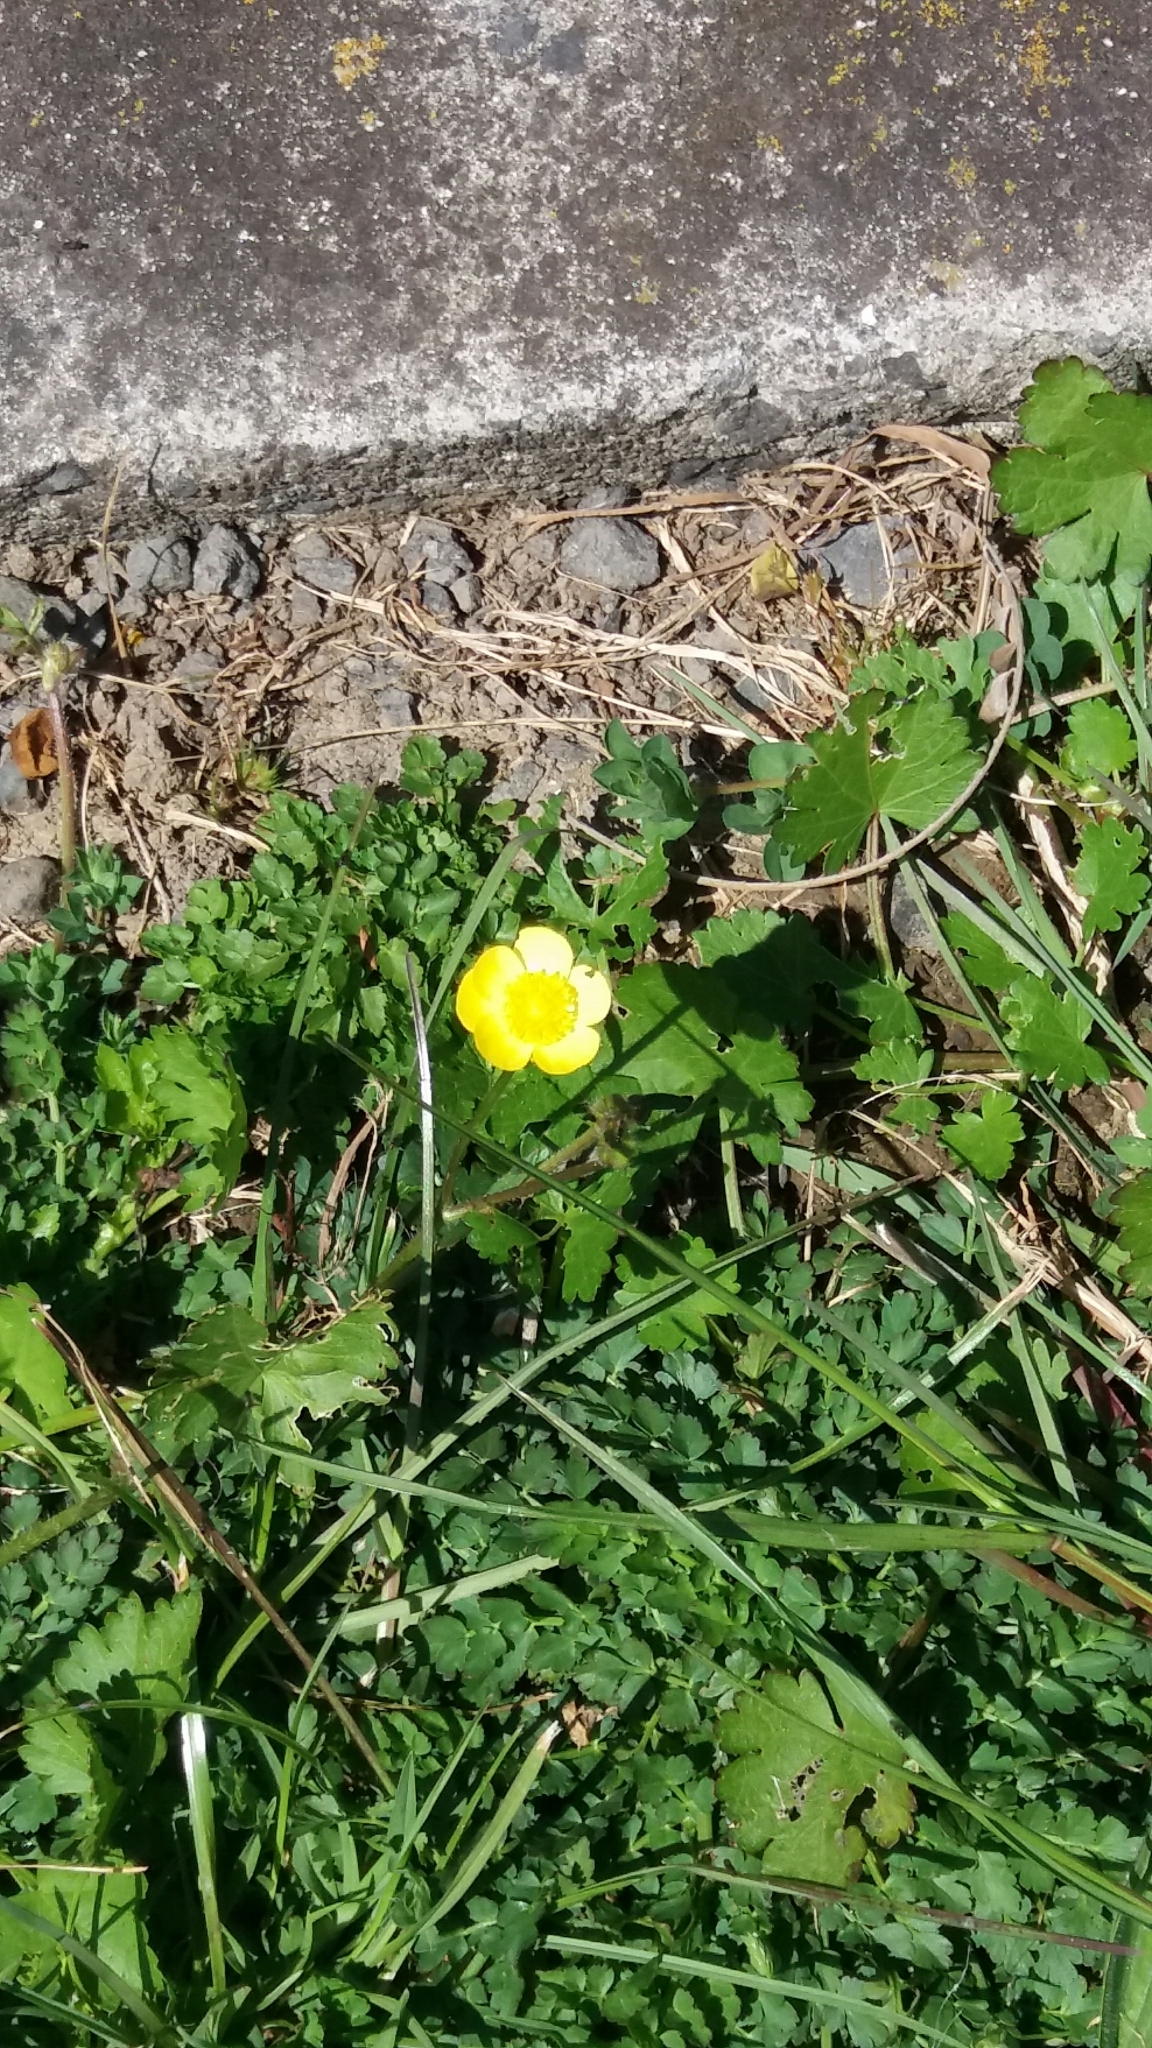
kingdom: Plantae
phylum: Tracheophyta
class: Magnoliopsida
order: Ranunculales
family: Ranunculaceae
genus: Ranunculus
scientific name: Ranunculus repens
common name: Creeping buttercup
